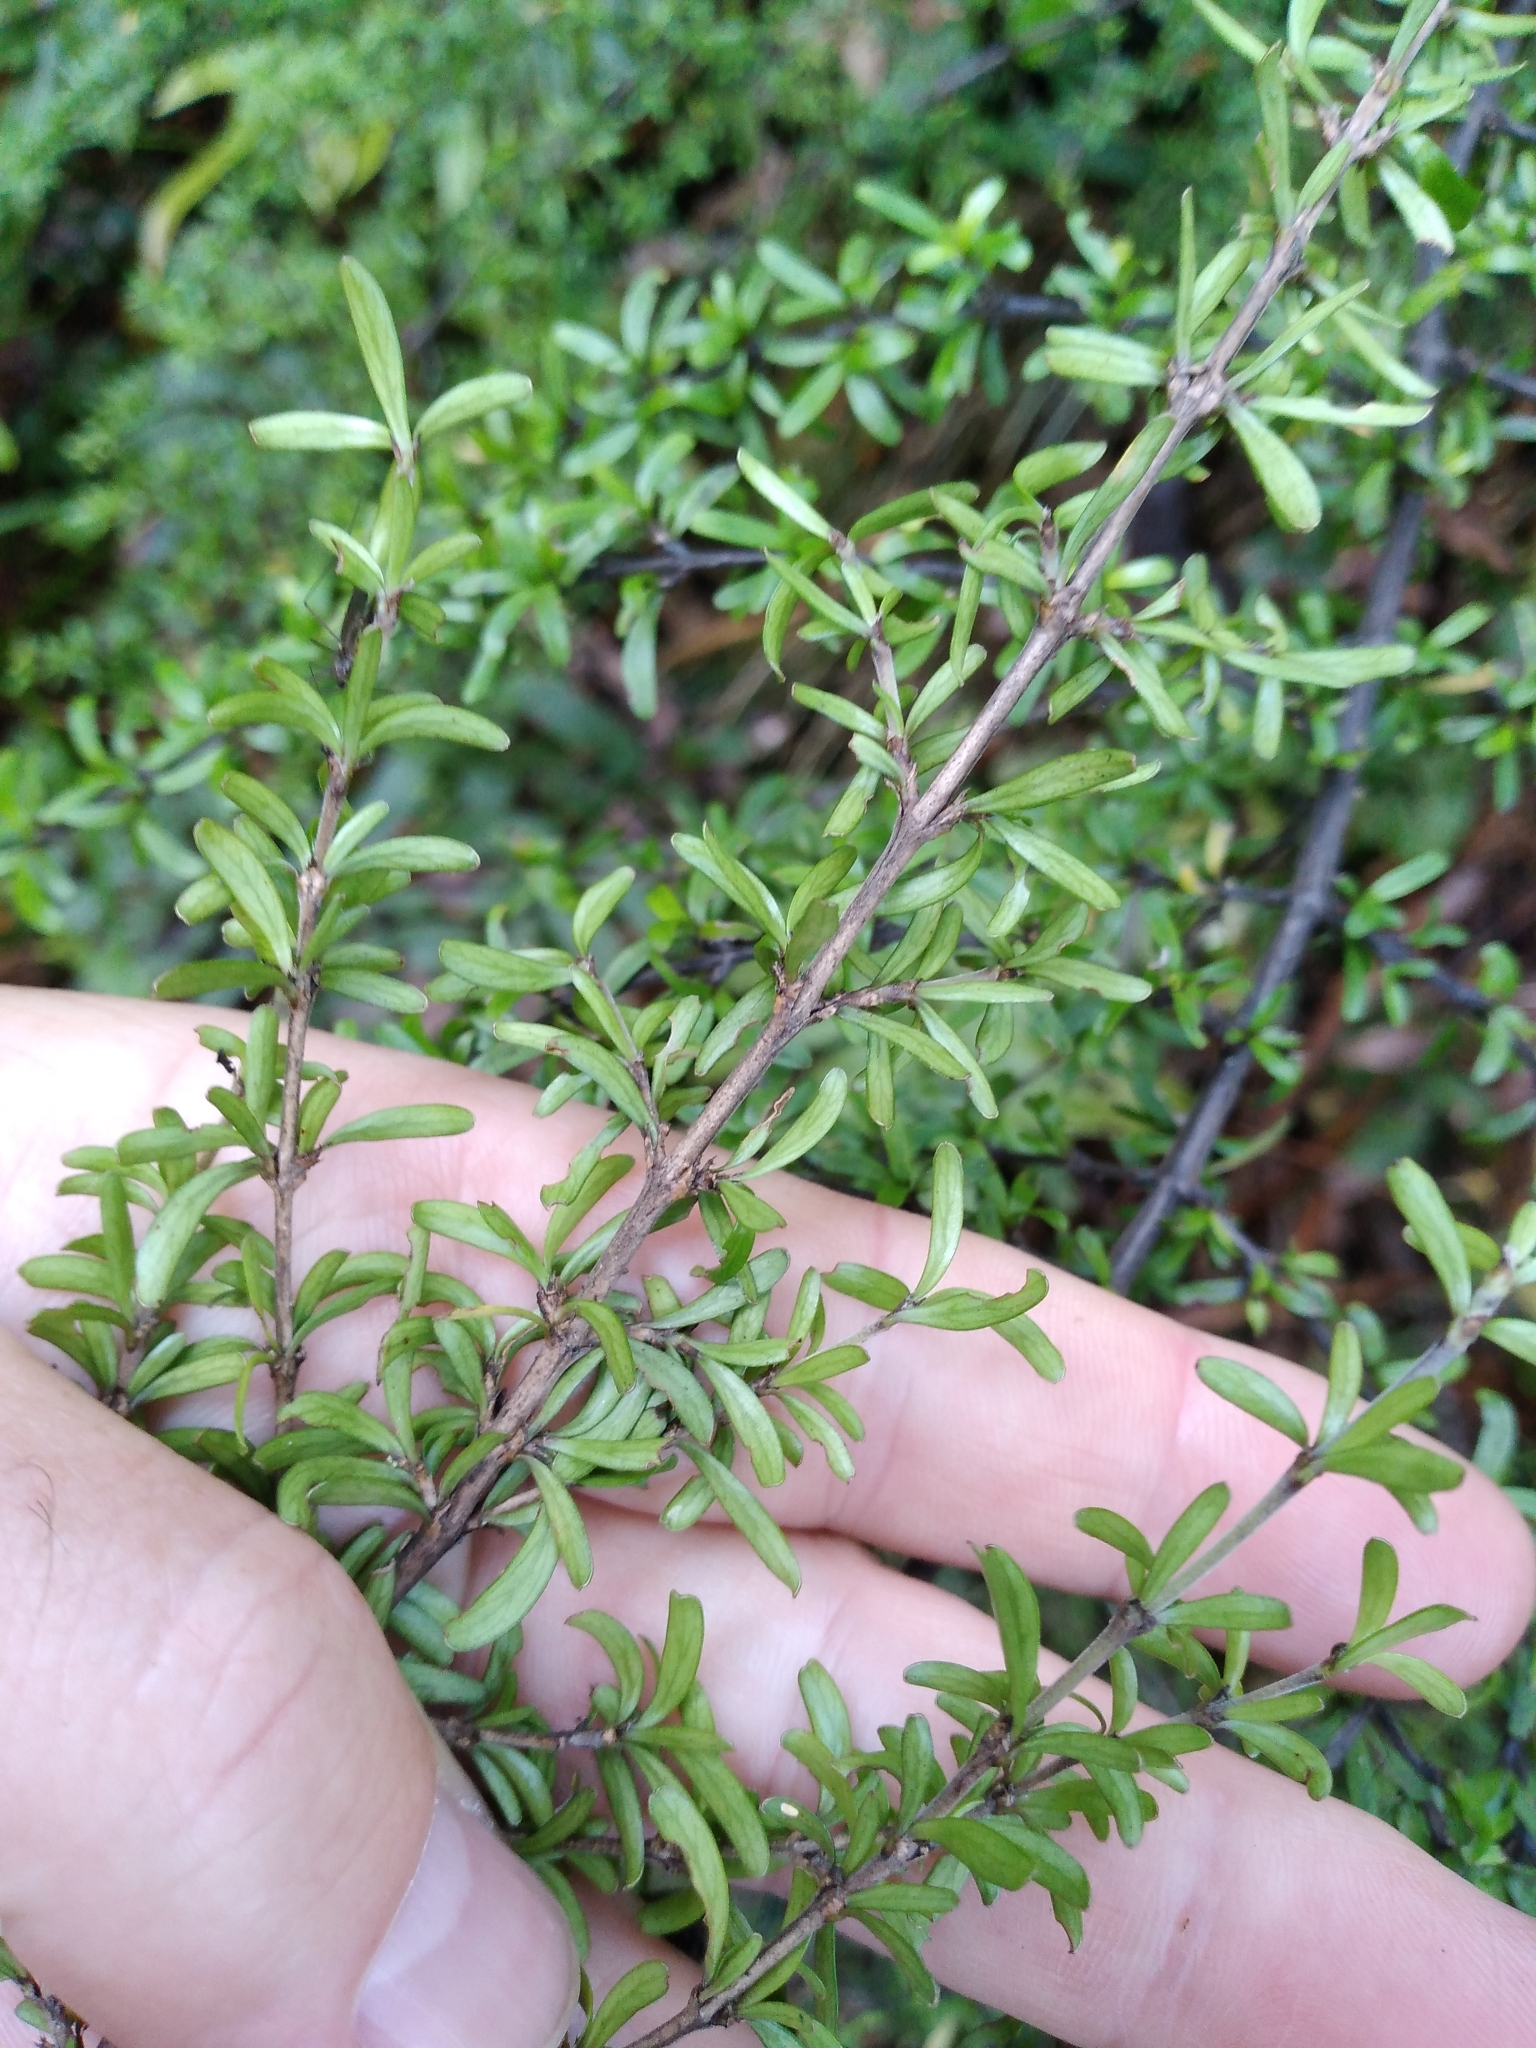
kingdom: Plantae
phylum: Tracheophyta
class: Magnoliopsida
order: Gentianales
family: Rubiaceae
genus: Coprosma
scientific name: Coprosma cuneata
